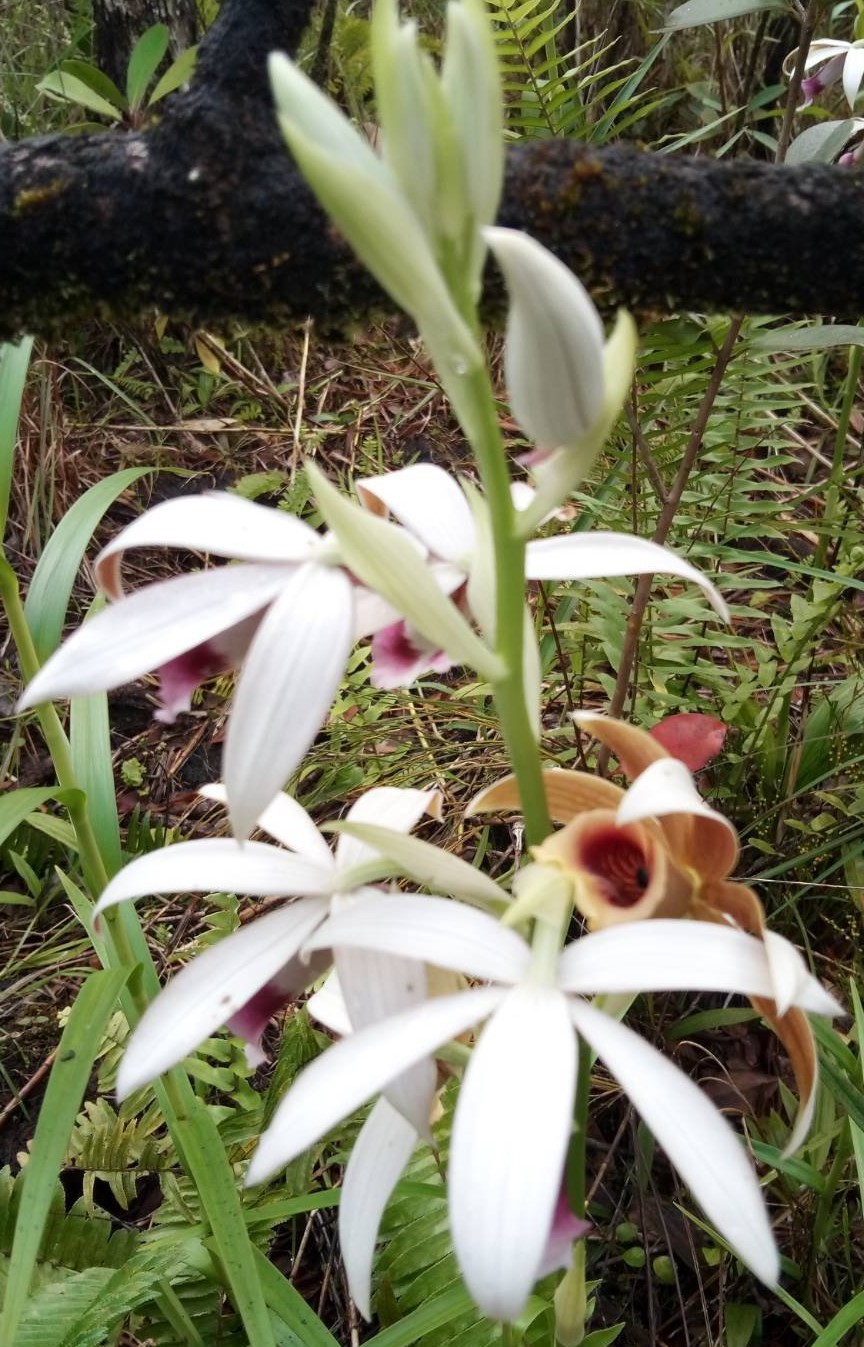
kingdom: Plantae
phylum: Tracheophyta
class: Liliopsida
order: Asparagales
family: Orchidaceae
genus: Calanthe
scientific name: Calanthe tankervilleae
